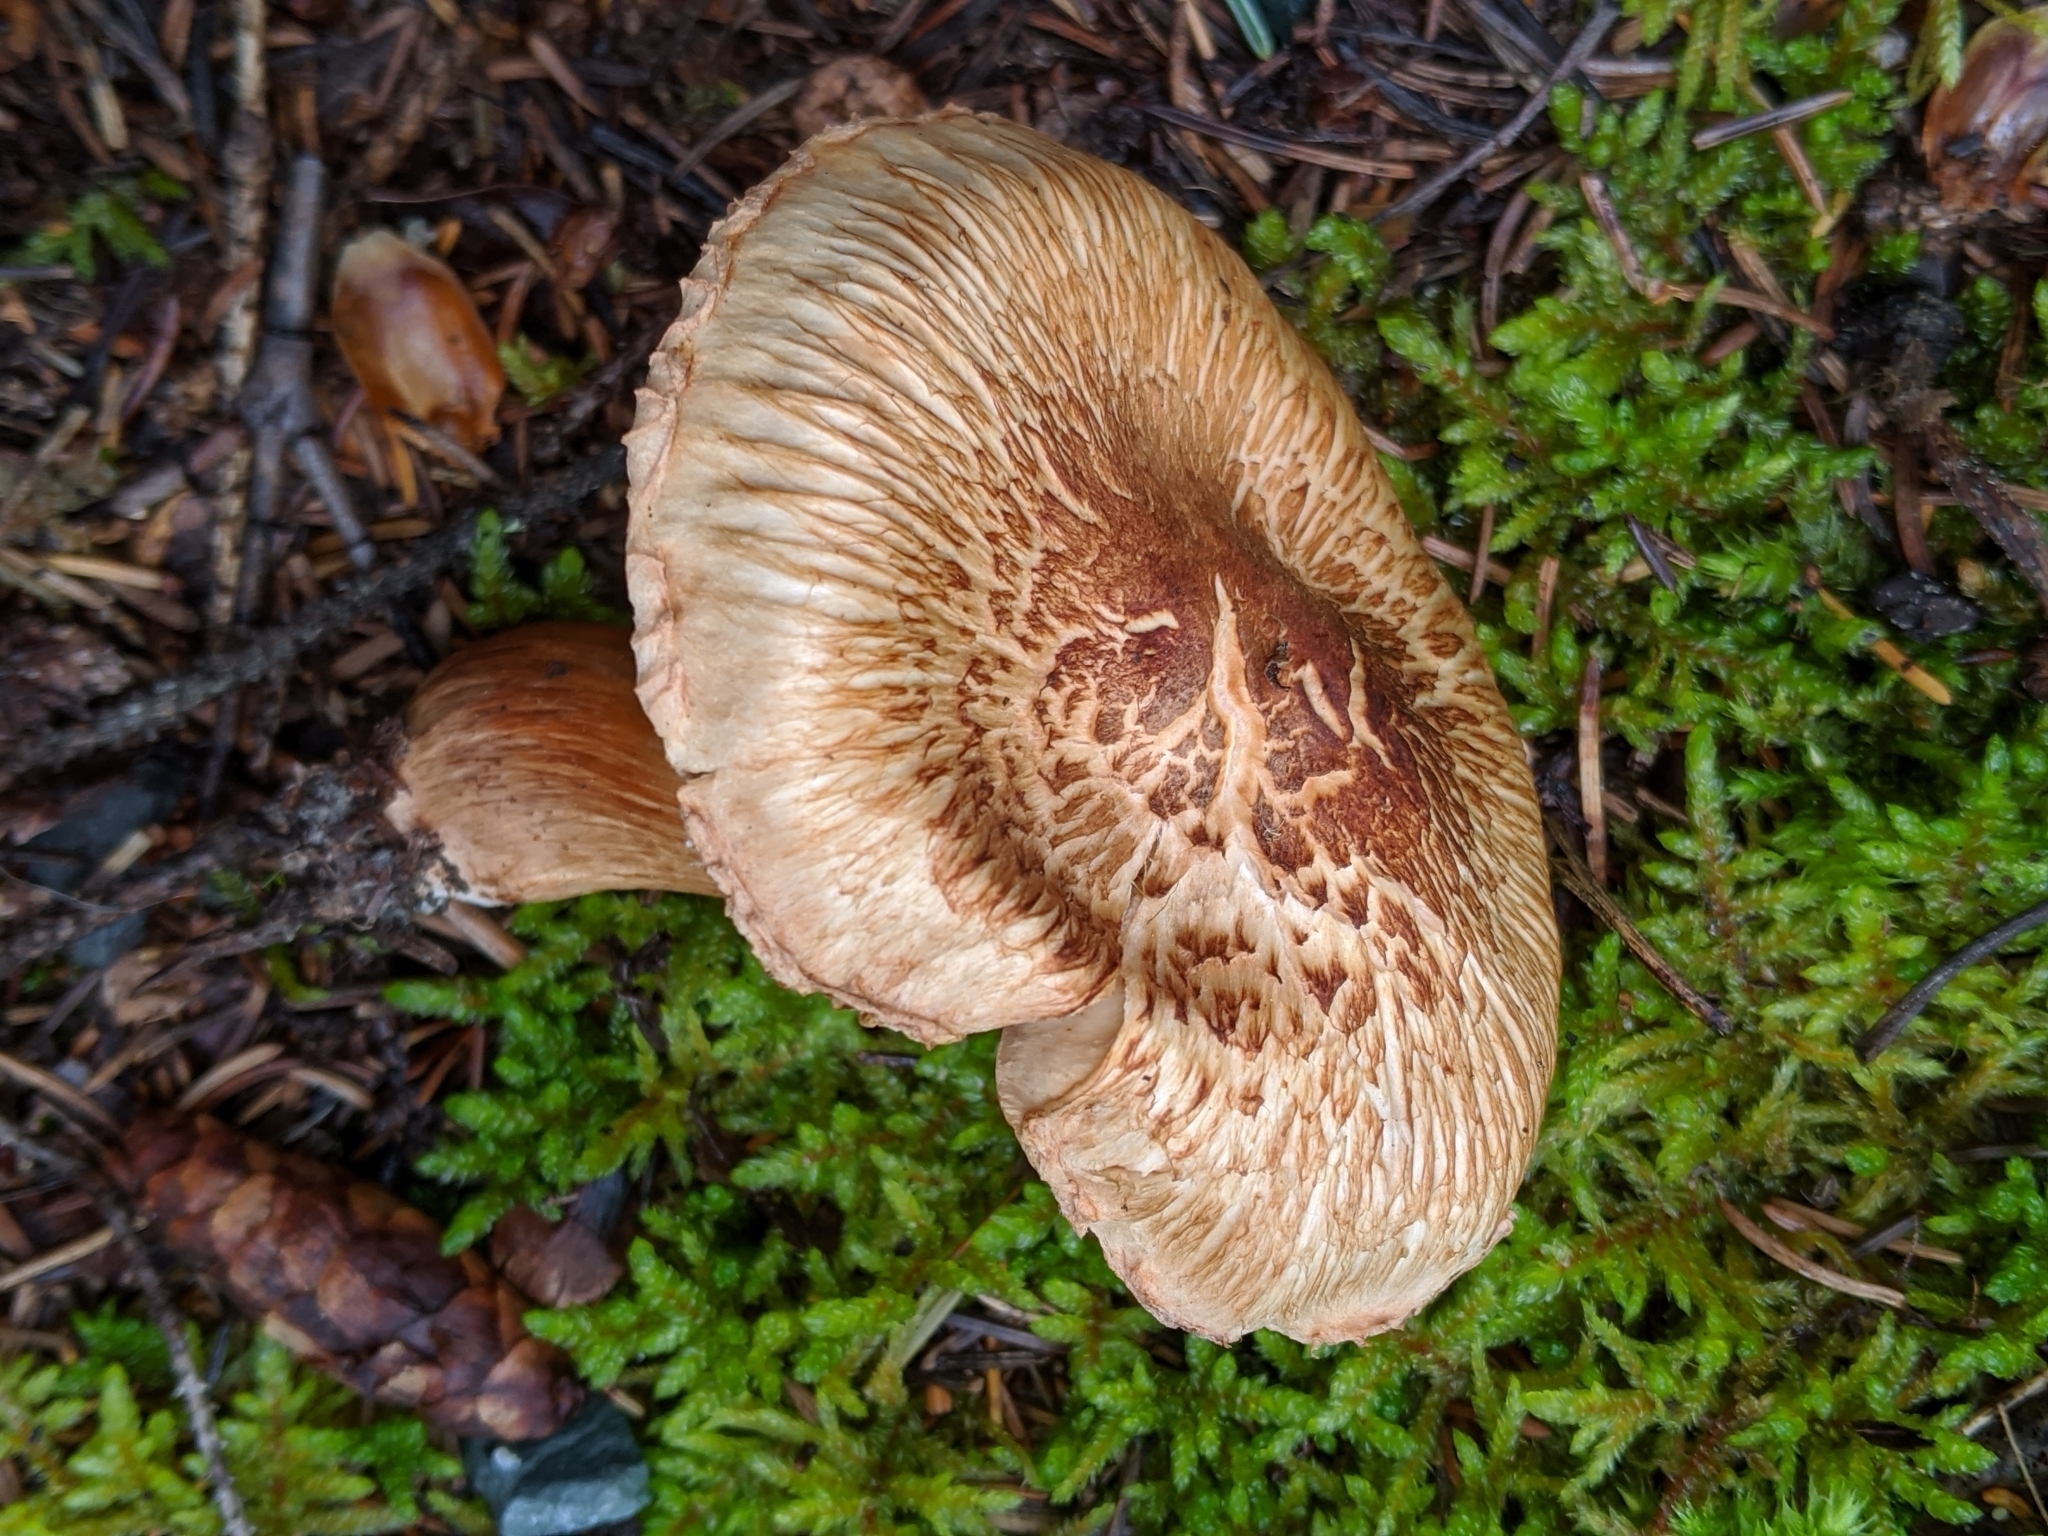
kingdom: Fungi
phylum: Basidiomycota
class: Agaricomycetes
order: Agaricales
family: Tricholomataceae
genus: Tricholoma
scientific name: Tricholoma vaccinum
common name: Scaly knight
